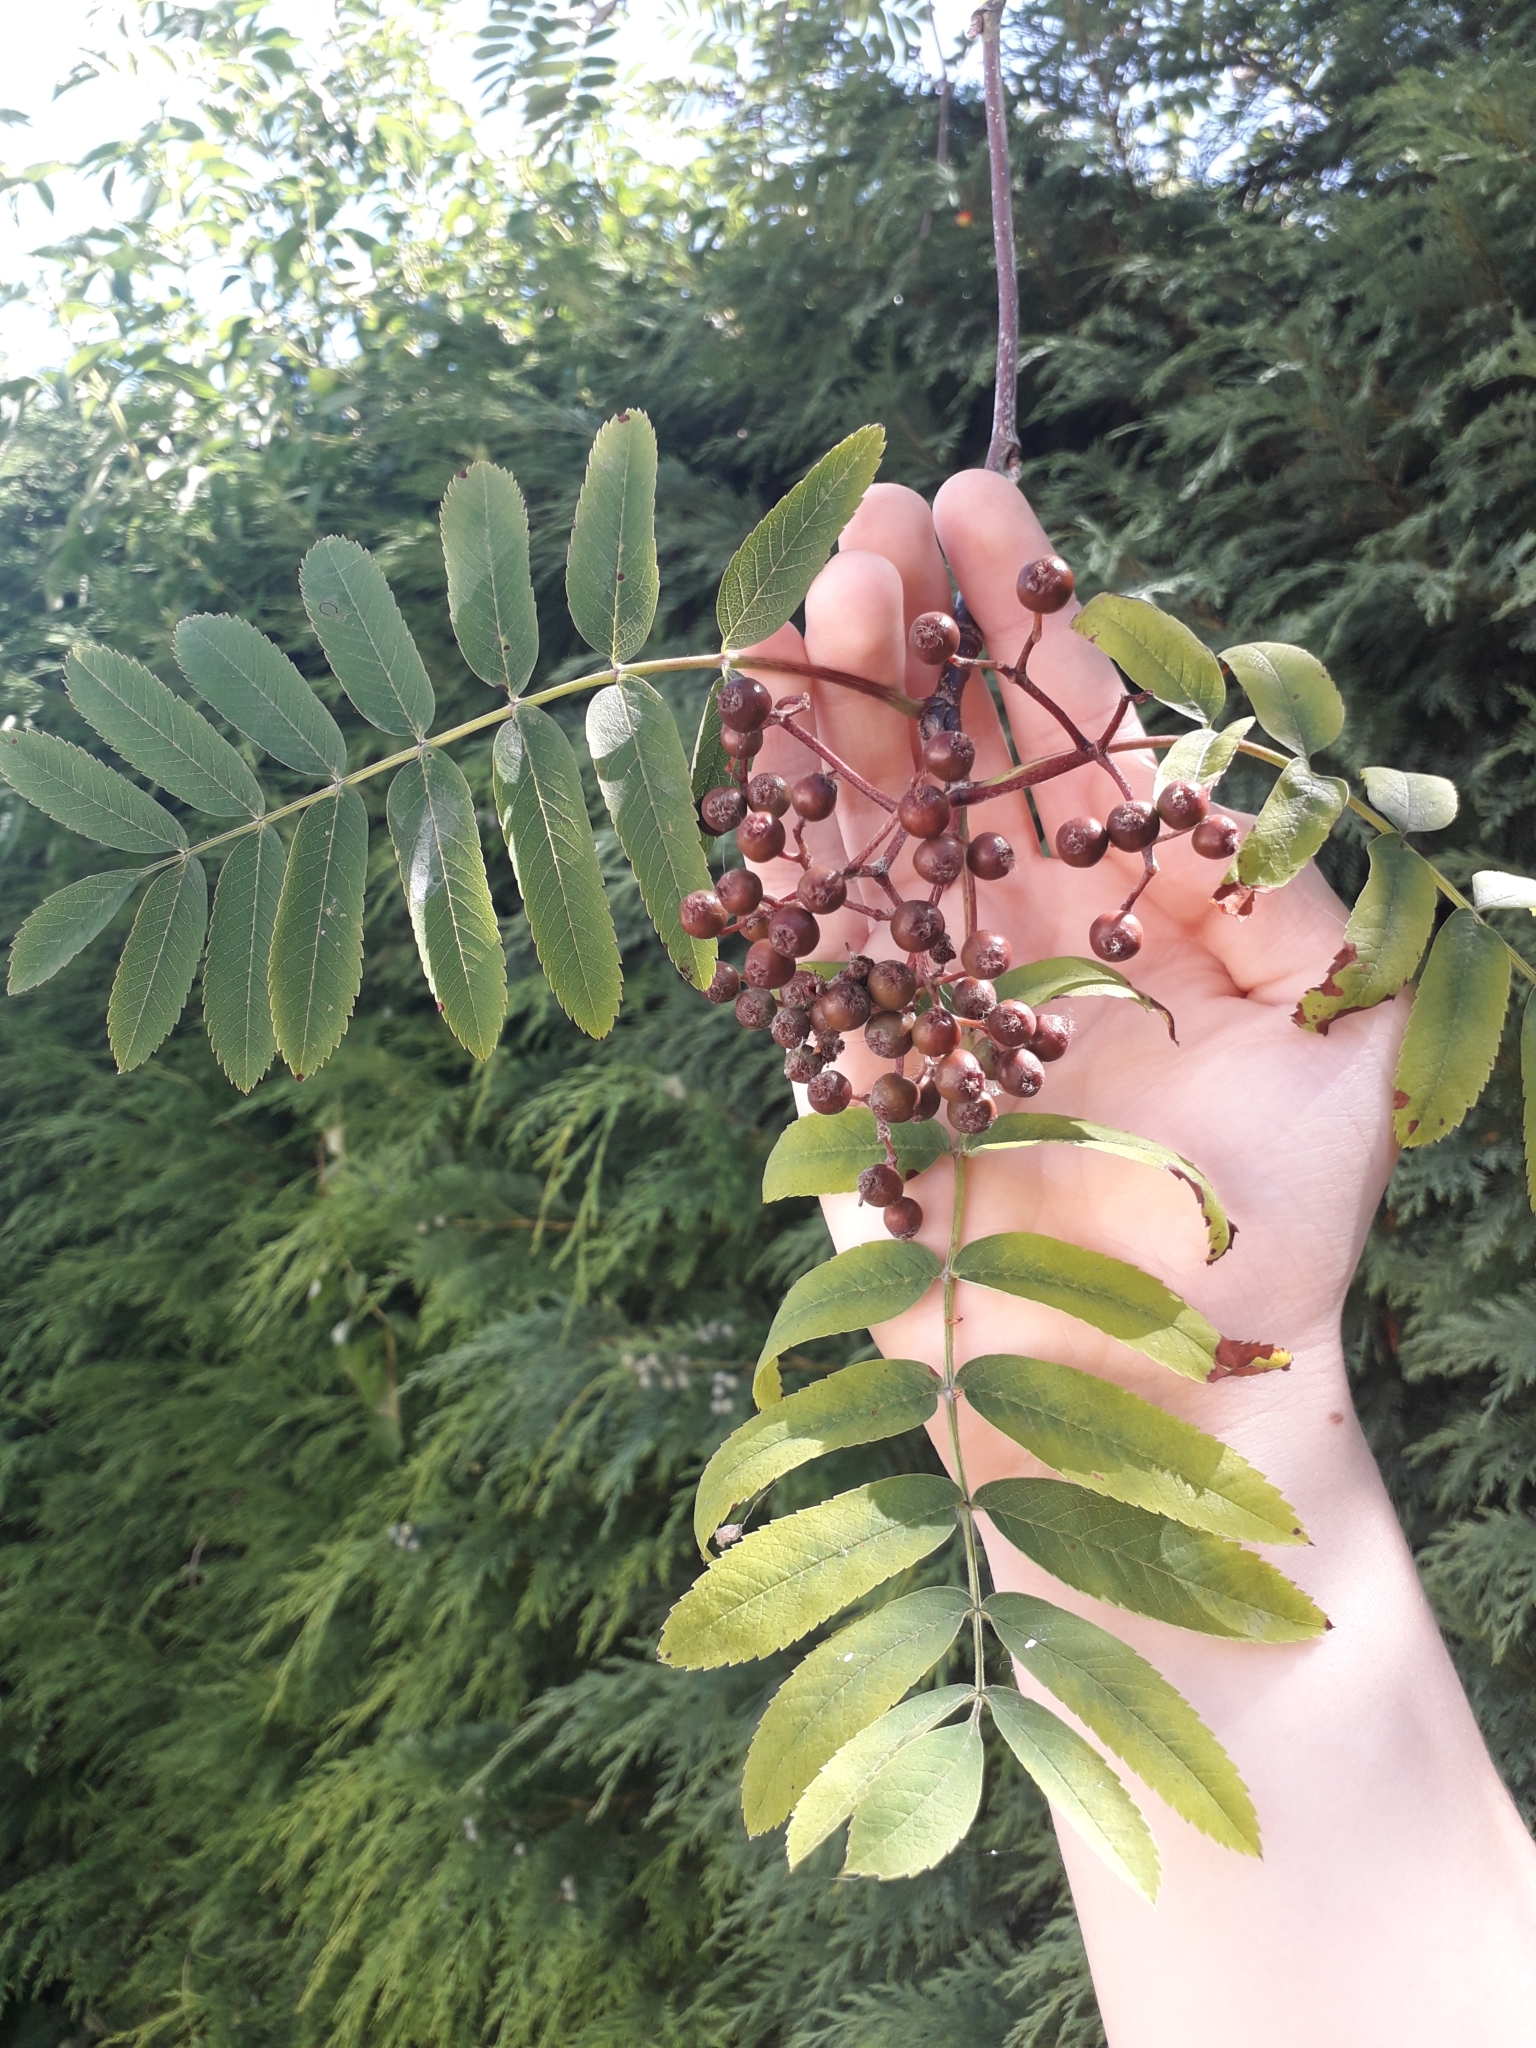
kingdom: Plantae
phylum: Tracheophyta
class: Magnoliopsida
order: Rosales
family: Rosaceae
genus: Sorbus
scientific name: Sorbus aucuparia
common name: Rowan
